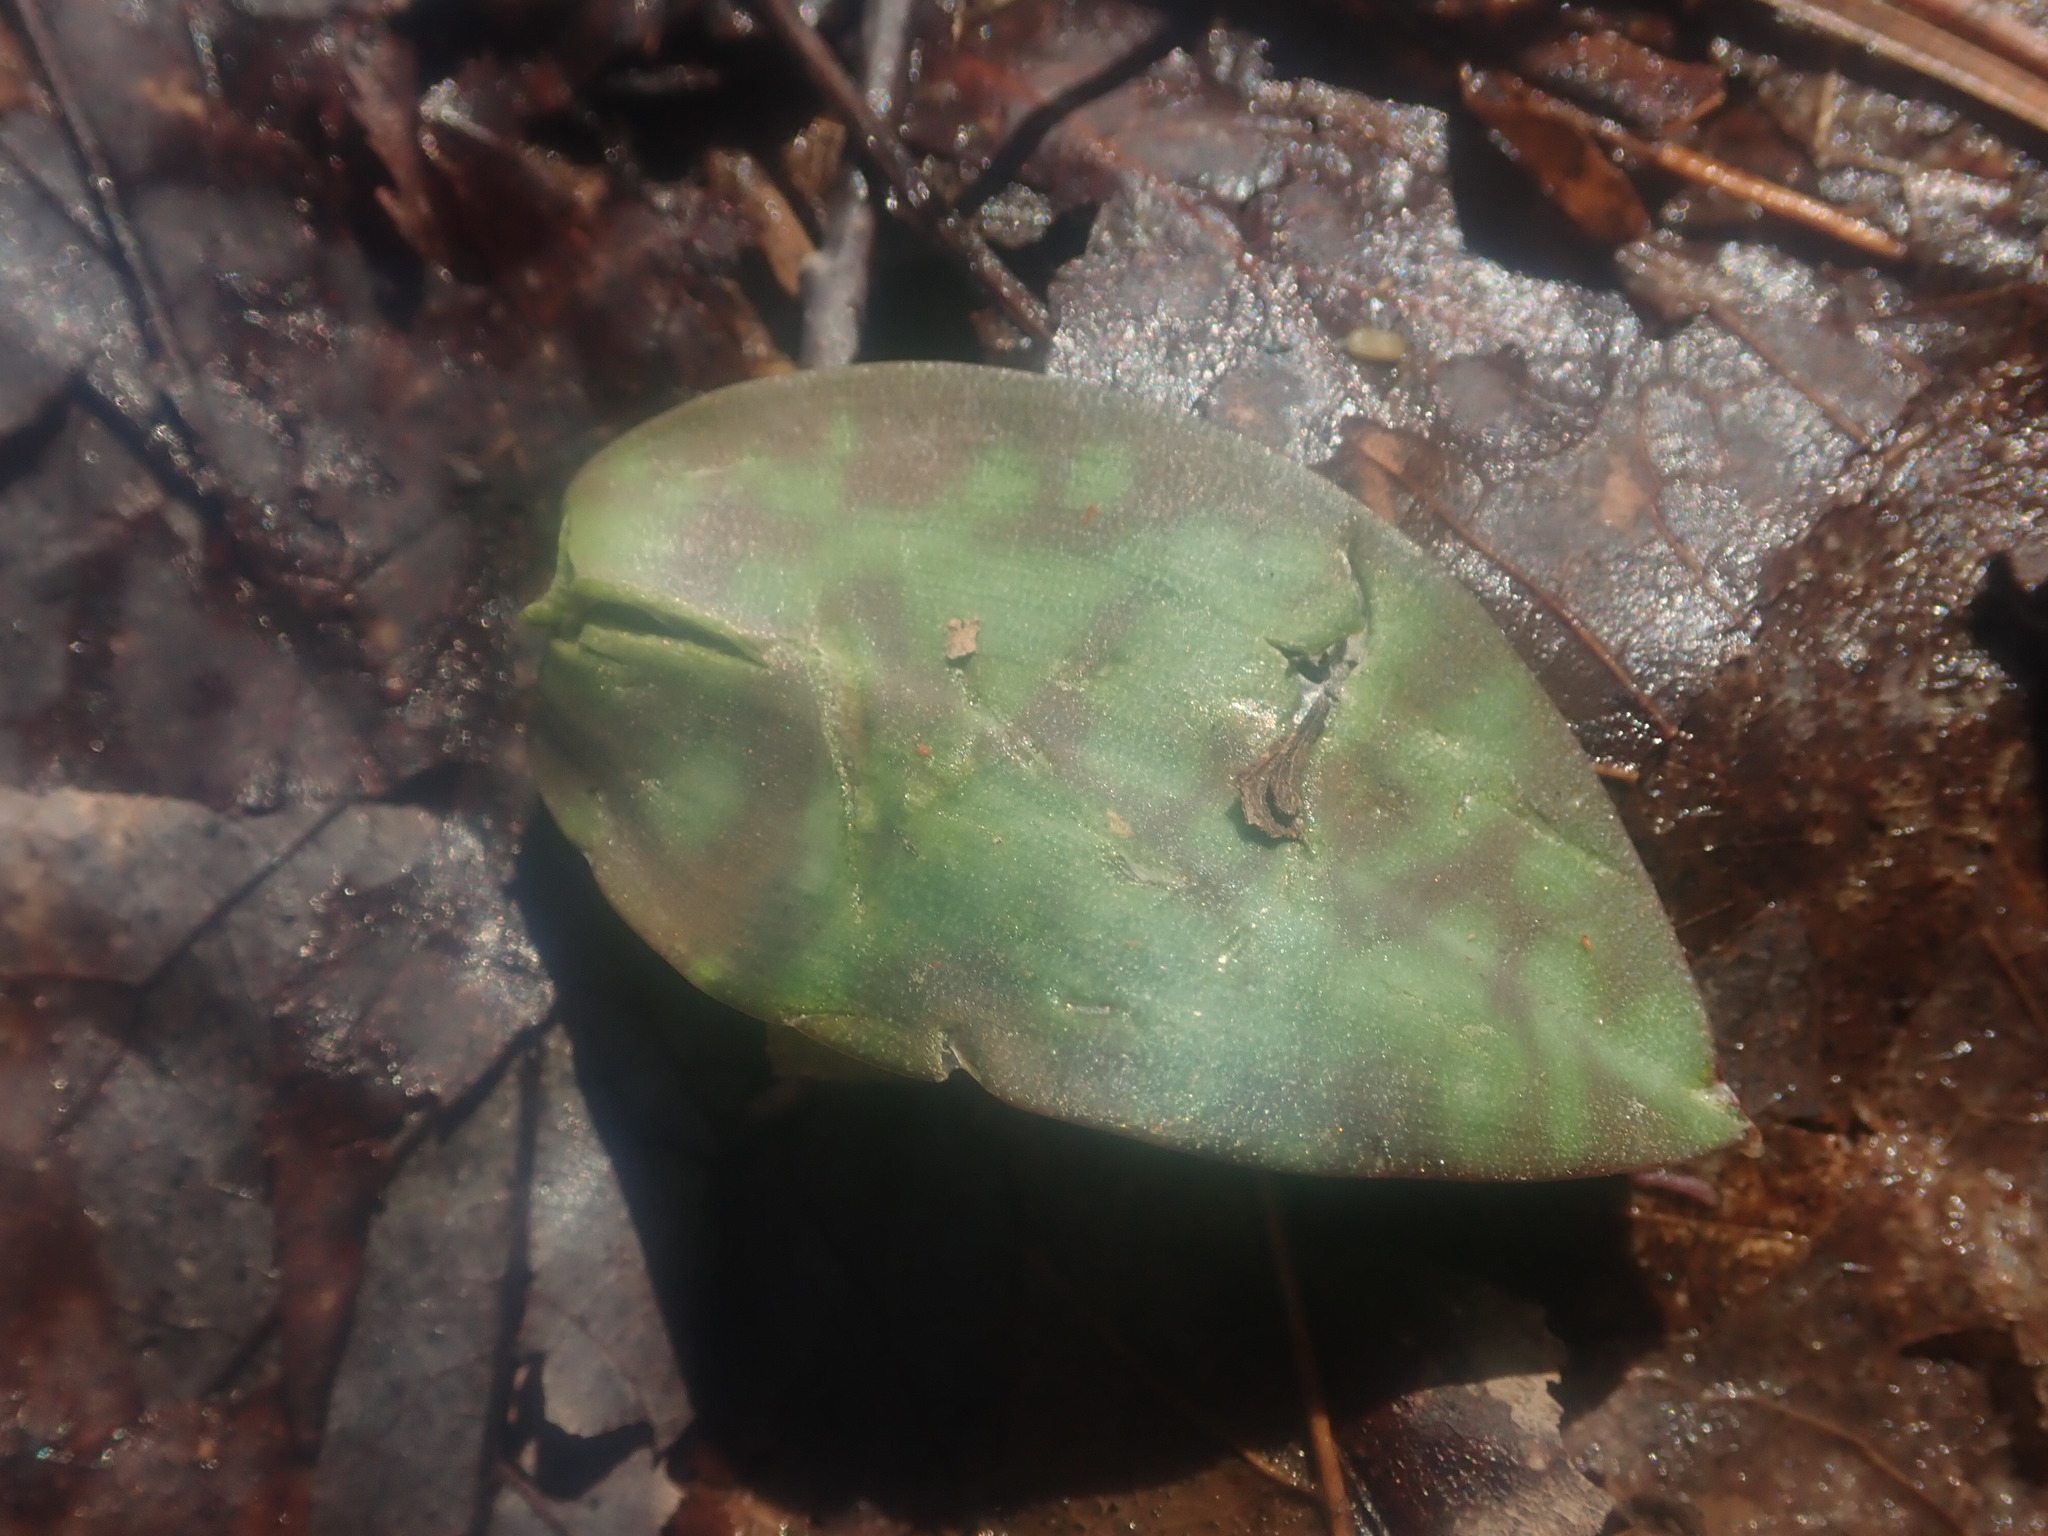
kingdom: Plantae
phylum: Tracheophyta
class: Liliopsida
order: Liliales
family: Liliaceae
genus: Erythronium
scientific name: Erythronium
